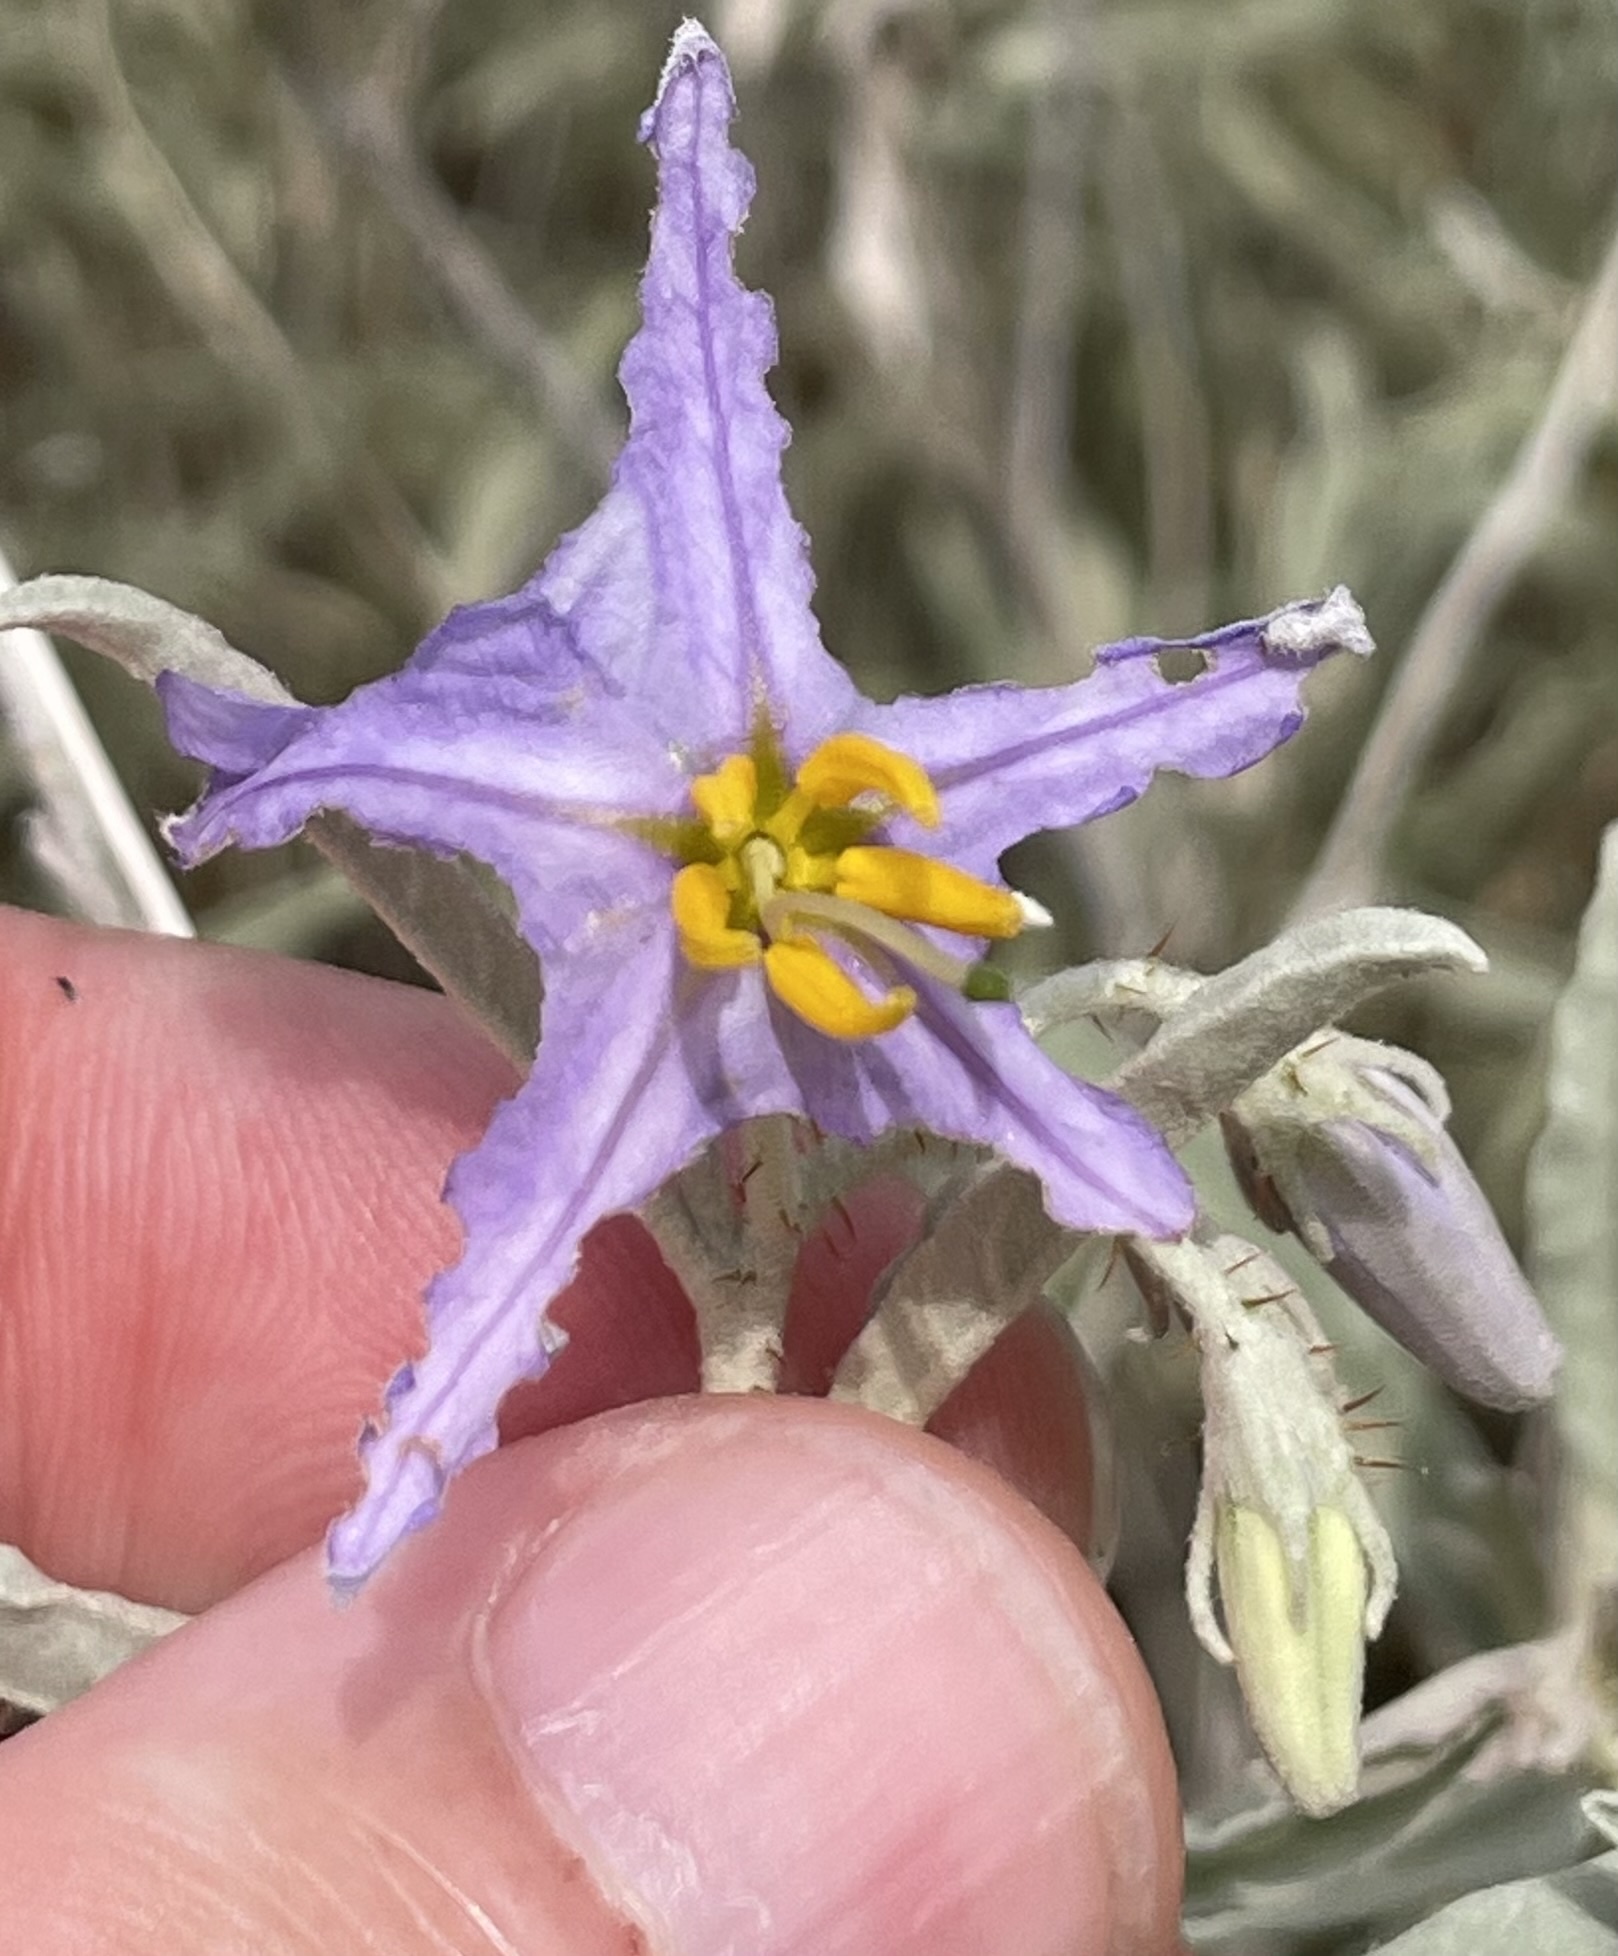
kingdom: Plantae
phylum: Tracheophyta
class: Magnoliopsida
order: Solanales
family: Solanaceae
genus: Solanum
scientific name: Solanum elaeagnifolium
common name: Silverleaf nightshade
